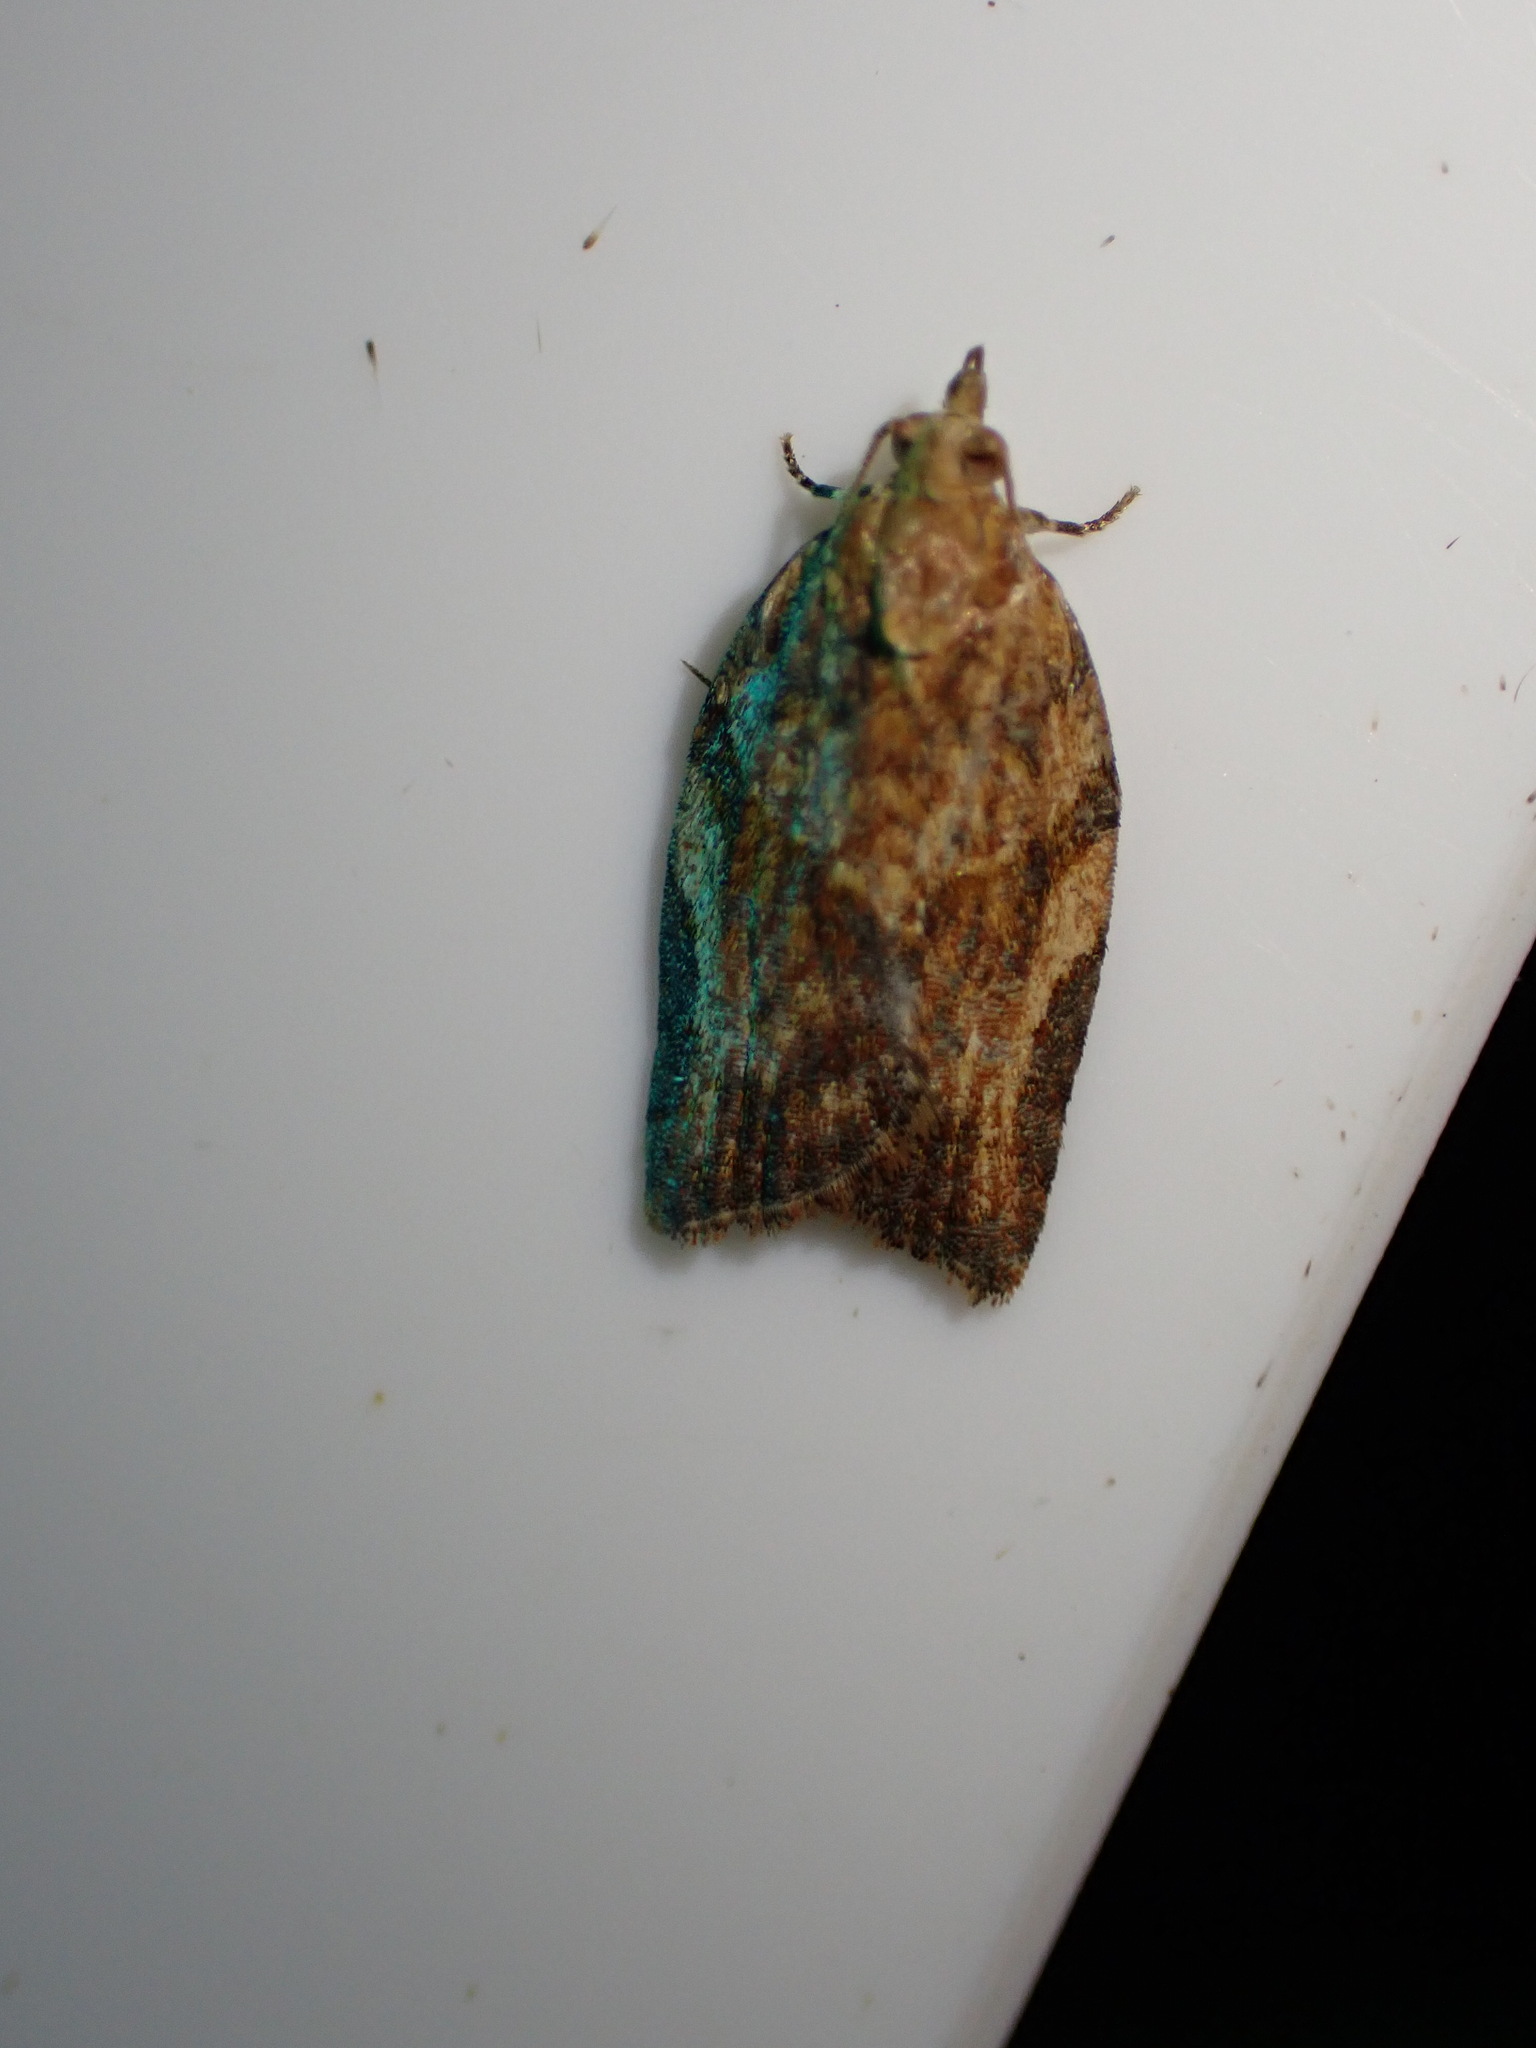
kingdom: Animalia
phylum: Arthropoda
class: Insecta
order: Lepidoptera
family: Tortricidae
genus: Epiphyas
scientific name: Epiphyas postvittana
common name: Light brown apple moth
